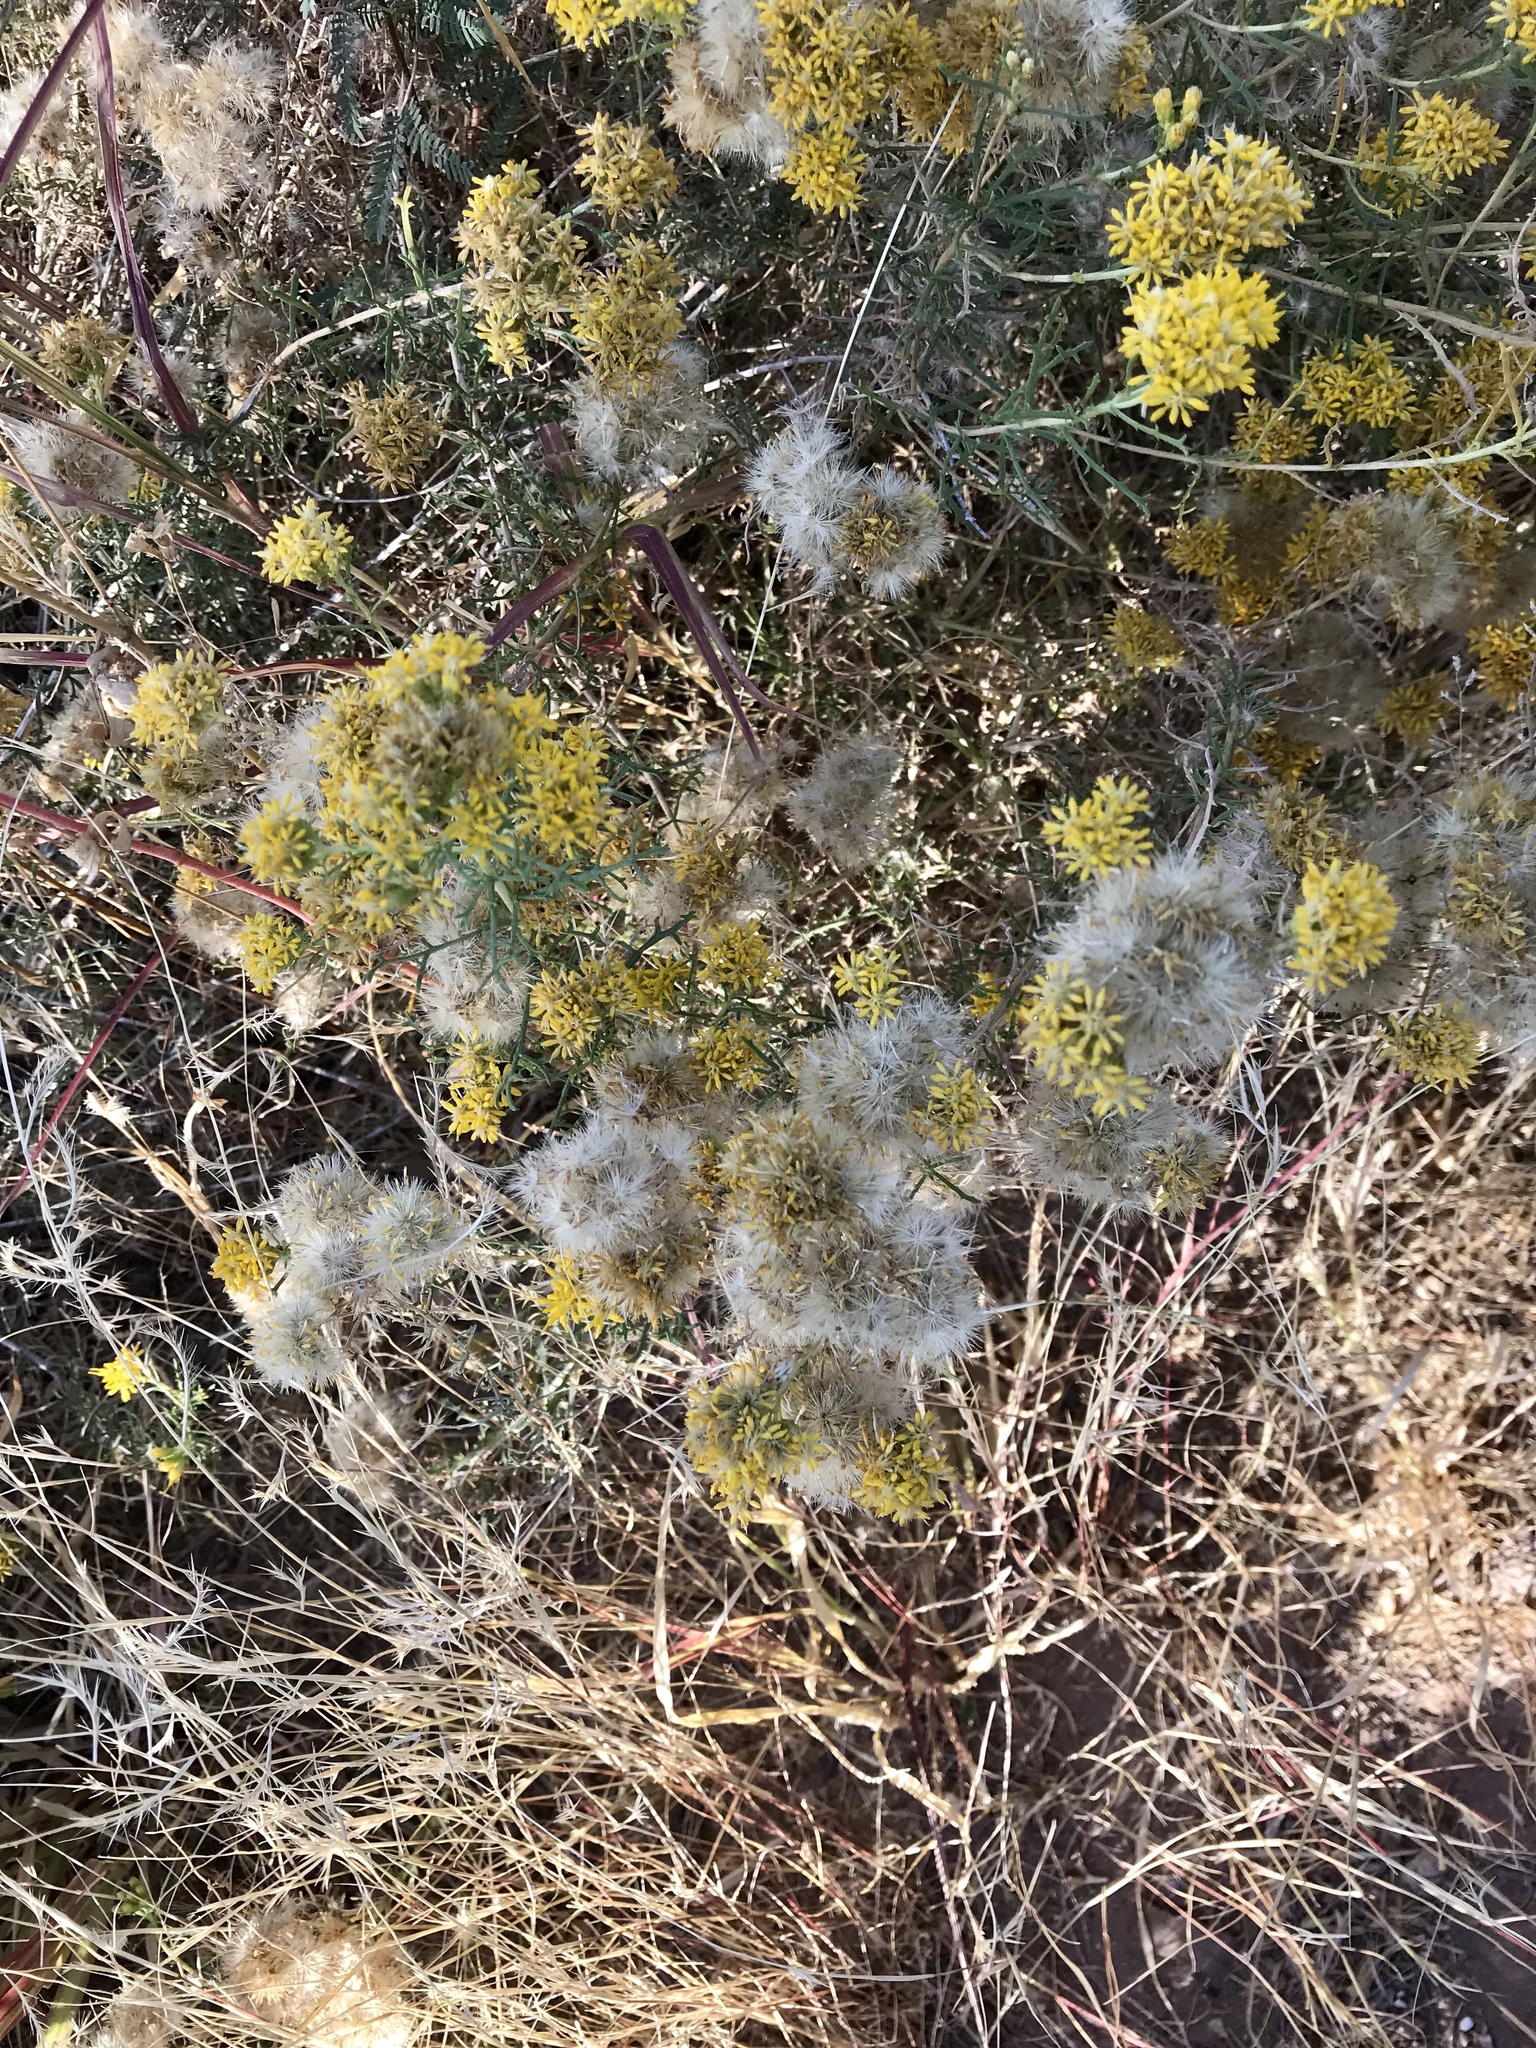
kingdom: Plantae
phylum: Tracheophyta
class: Magnoliopsida
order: Asterales
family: Asteraceae
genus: Isocoma
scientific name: Isocoma tenuisecta
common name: Burroweed
